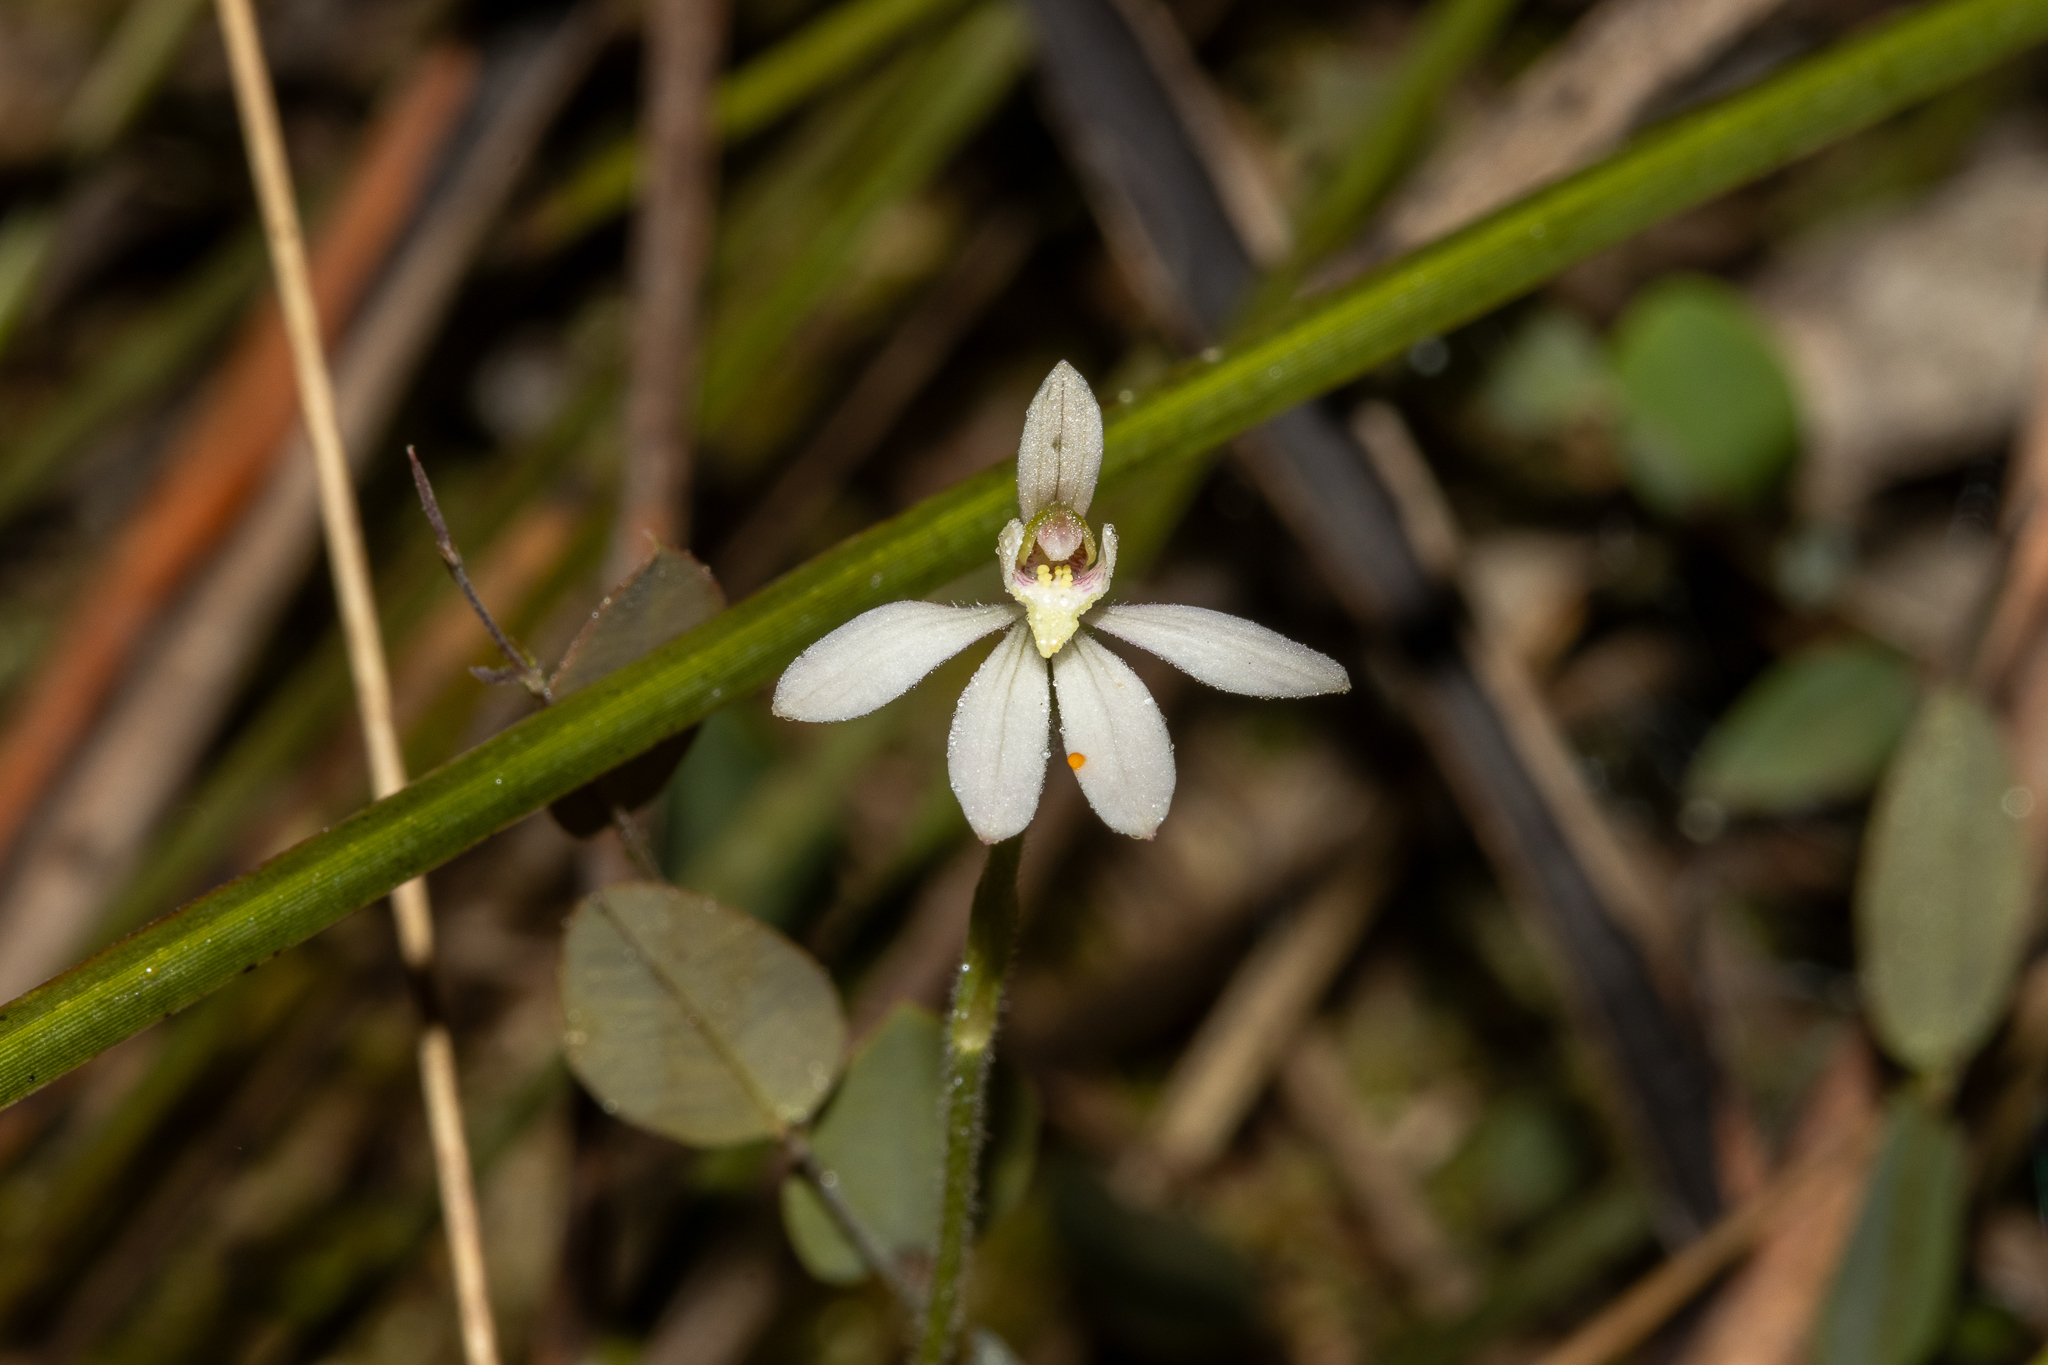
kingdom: Plantae
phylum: Tracheophyta
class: Liliopsida
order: Asparagales
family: Orchidaceae
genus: Caladenia
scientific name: Caladenia prolata
